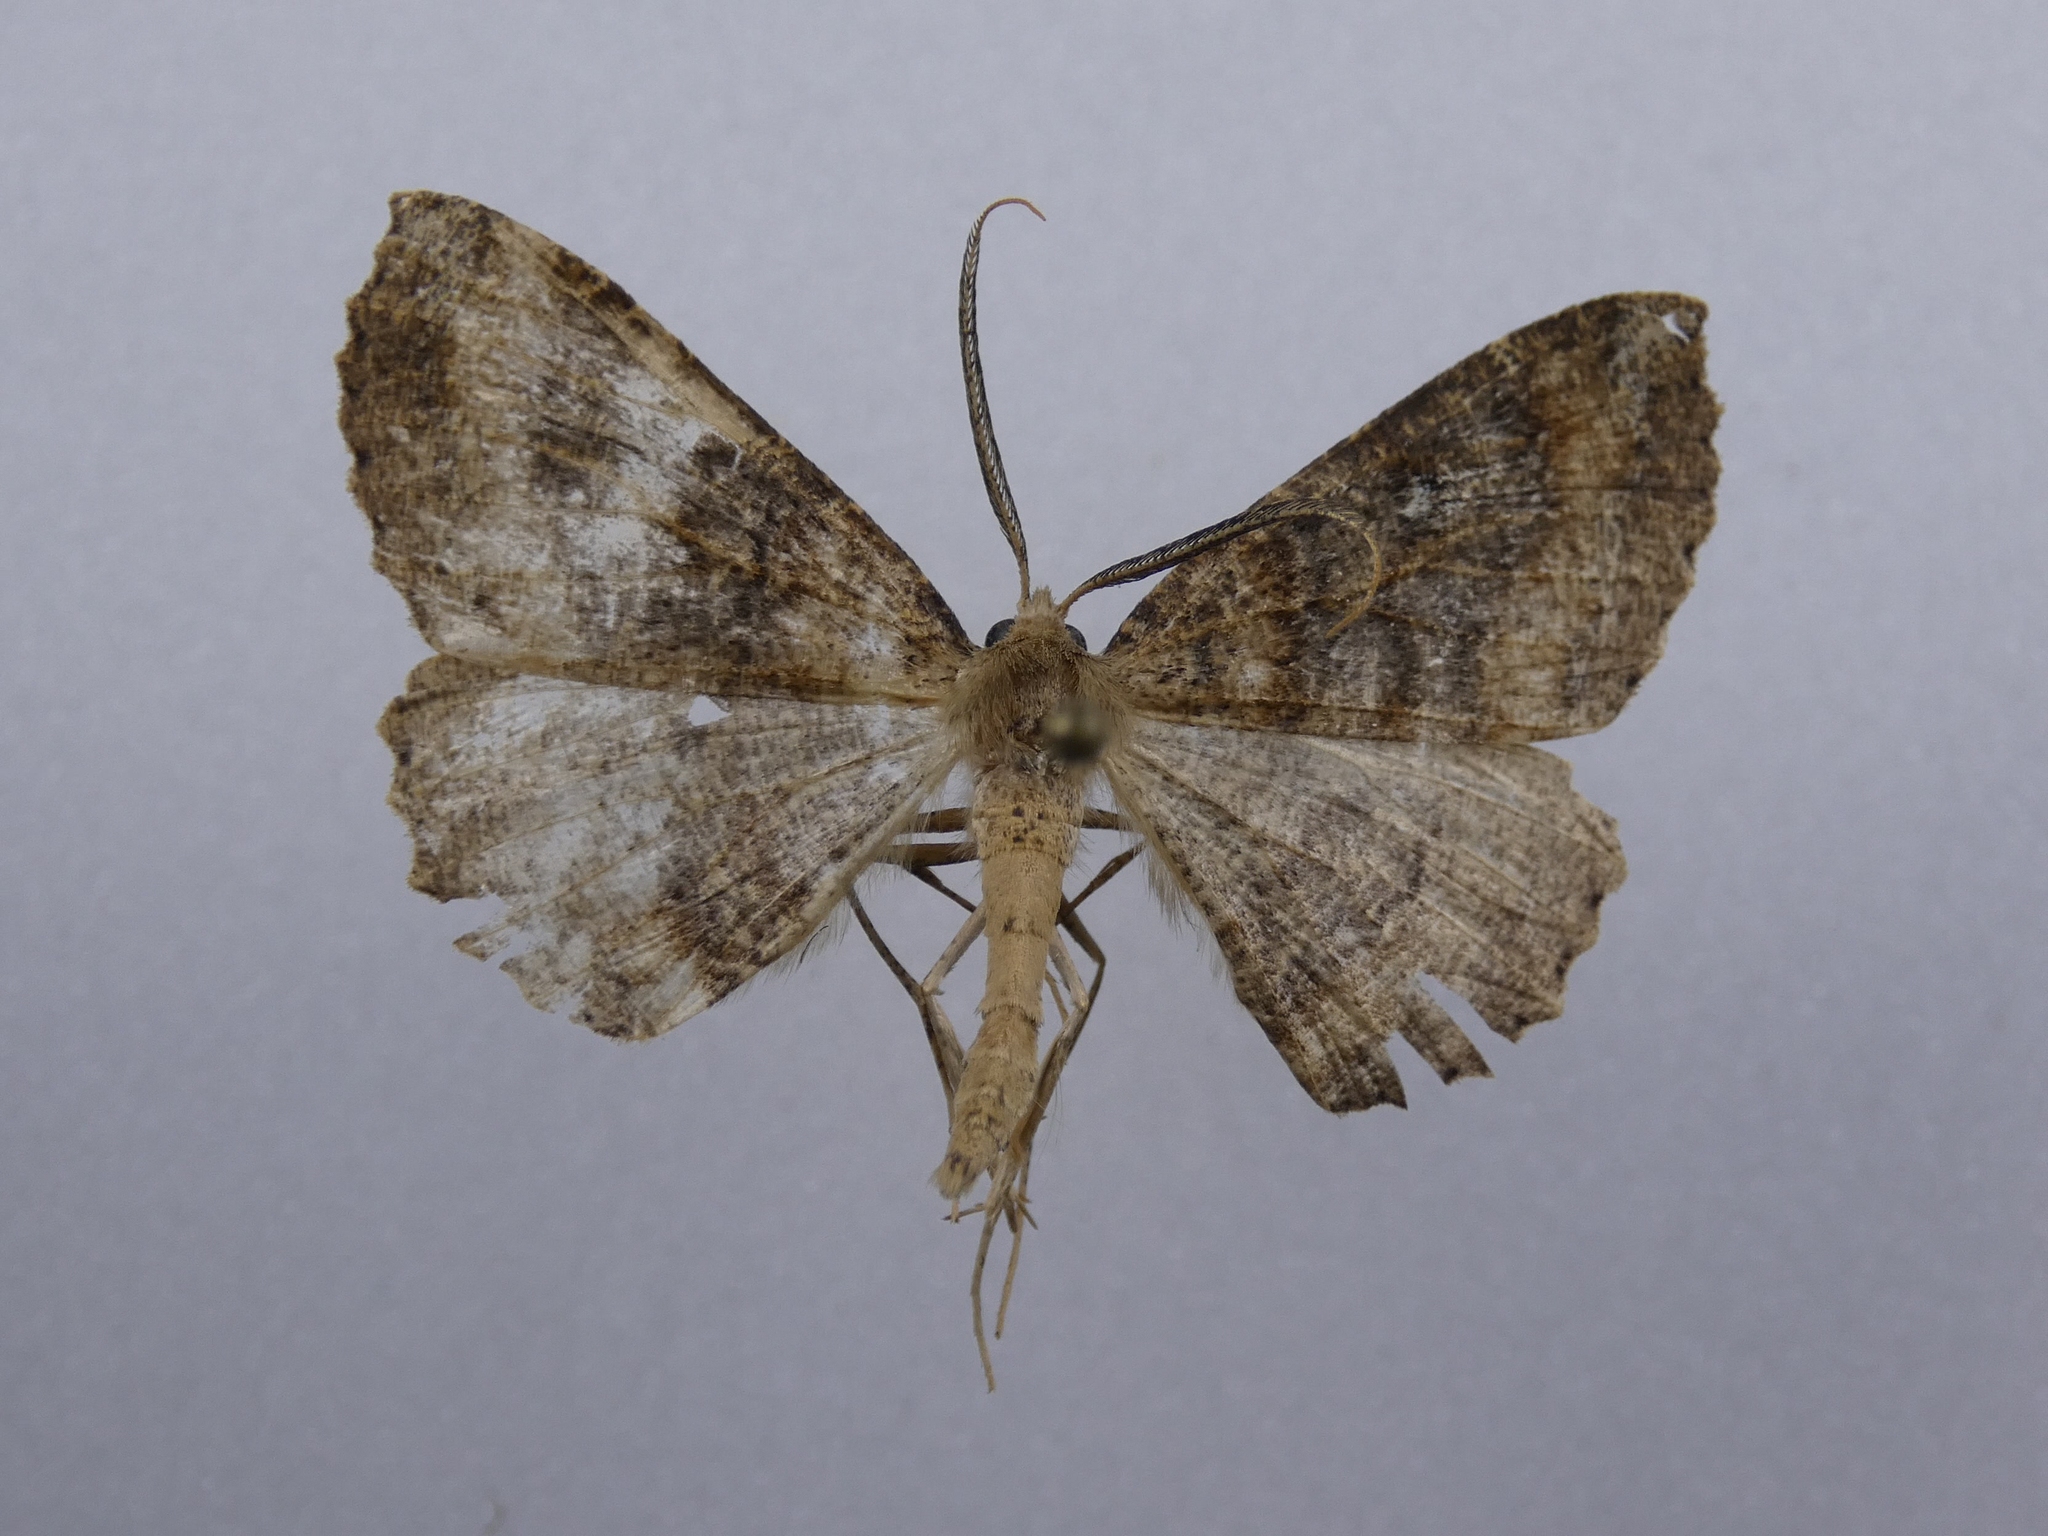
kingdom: Animalia
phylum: Arthropoda
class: Insecta
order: Lepidoptera
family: Geometridae
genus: Cleora
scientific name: Cleora scriptaria
